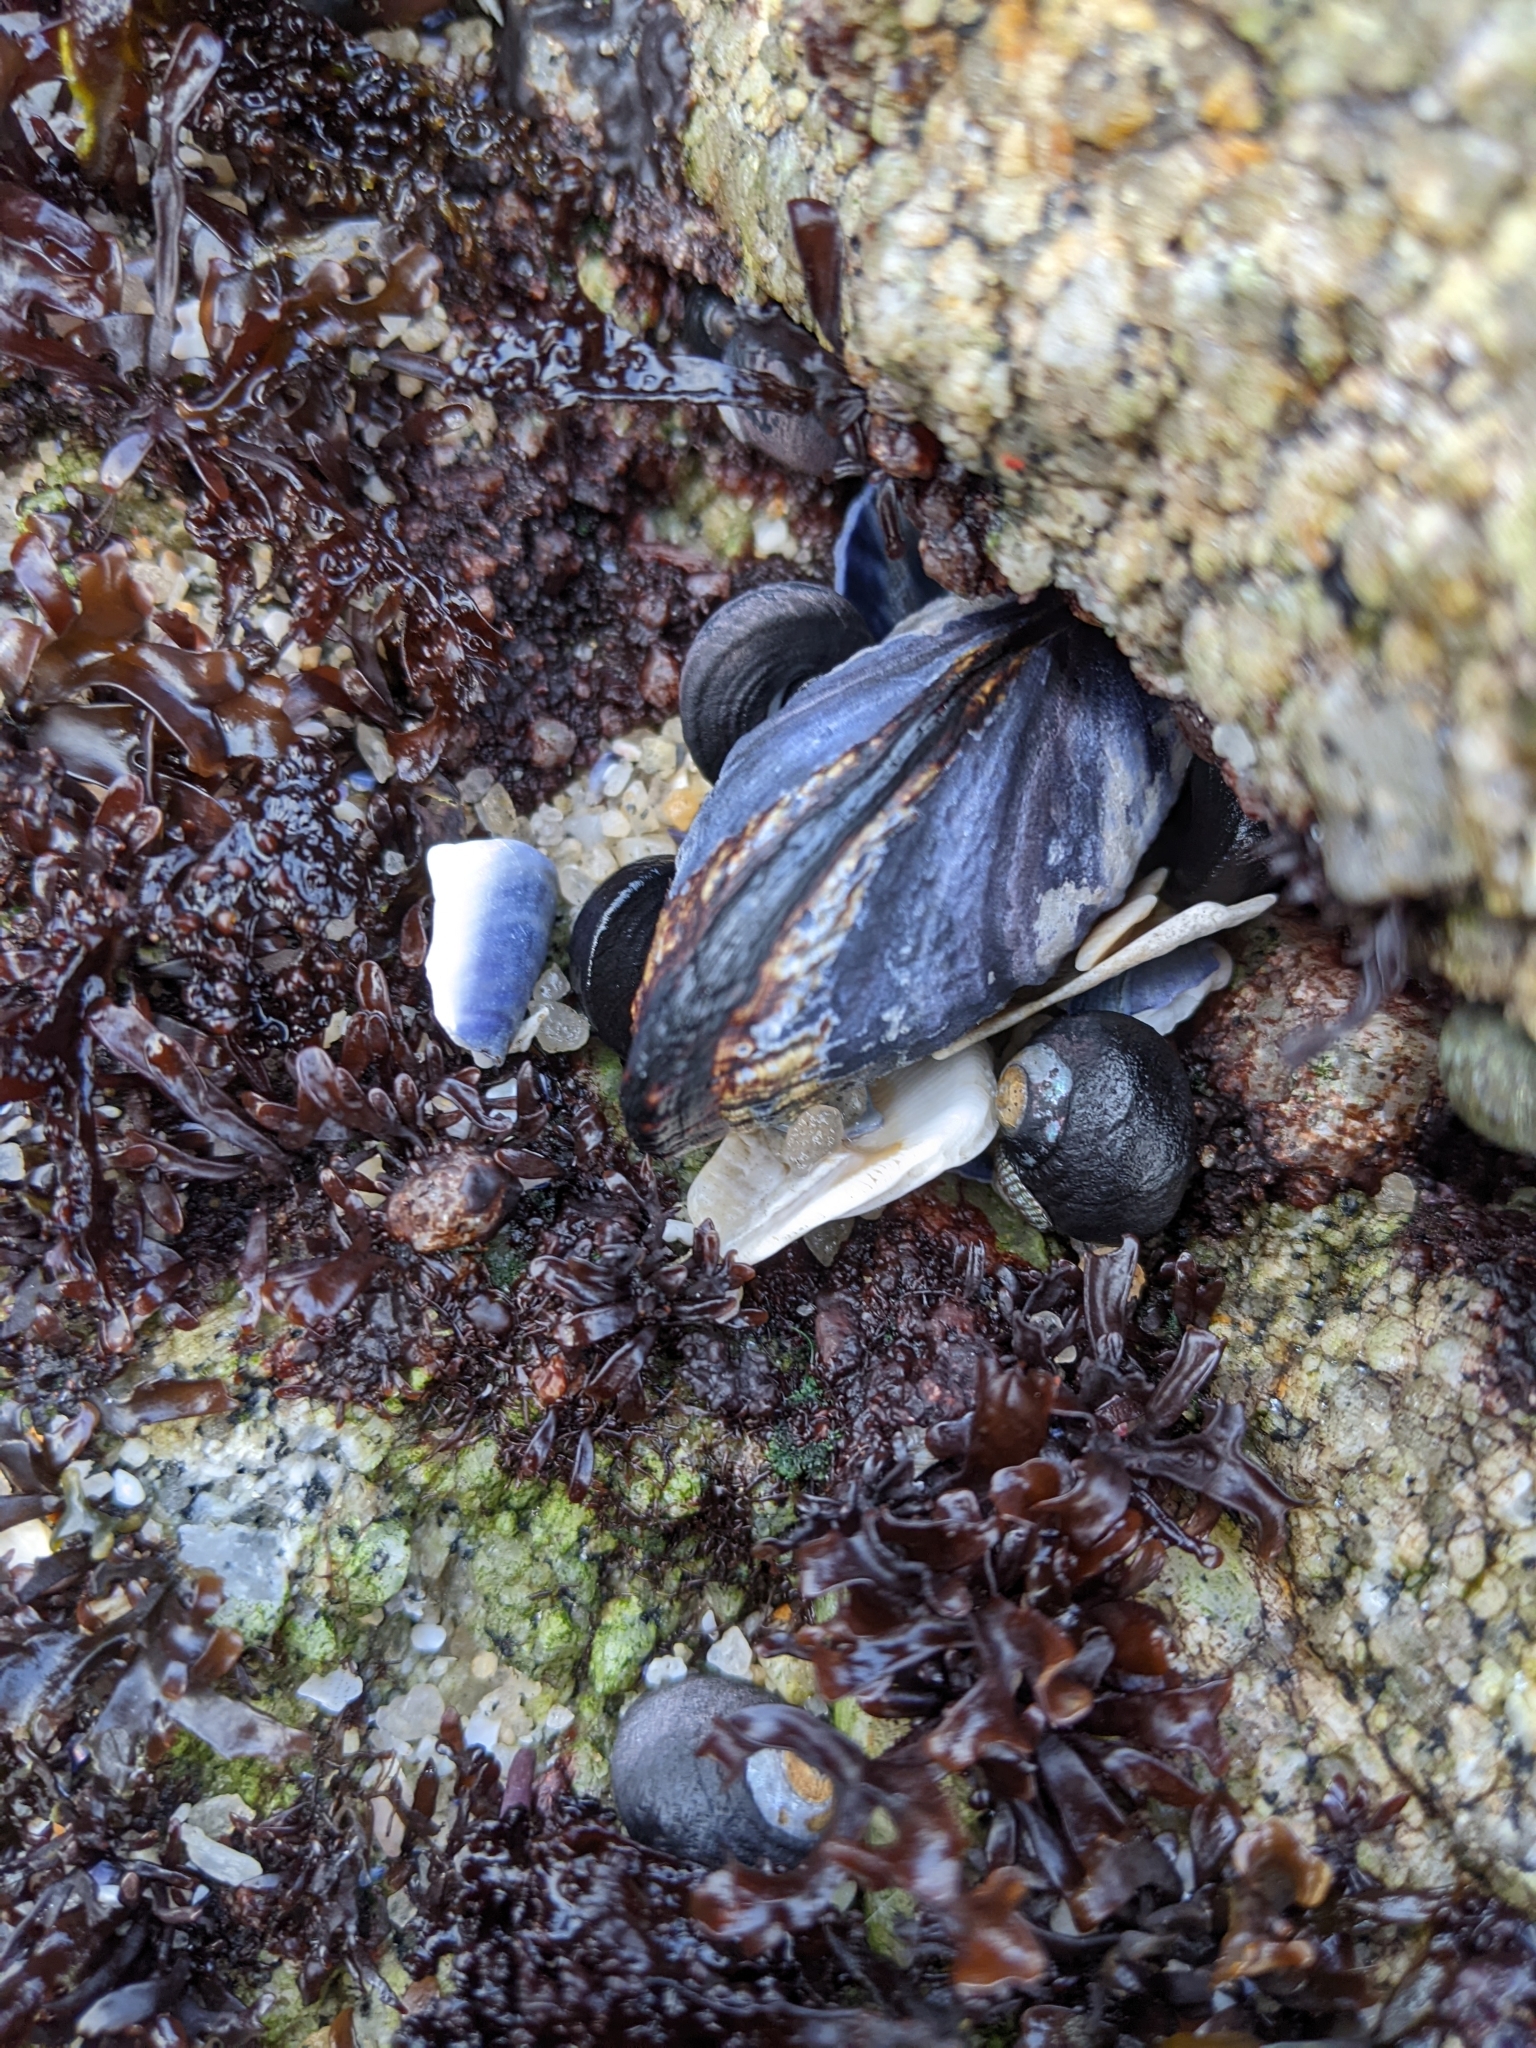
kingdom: Animalia
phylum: Mollusca
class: Bivalvia
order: Mytilida
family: Mytilidae
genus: Mytilus
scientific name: Mytilus californianus
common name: California mussel
